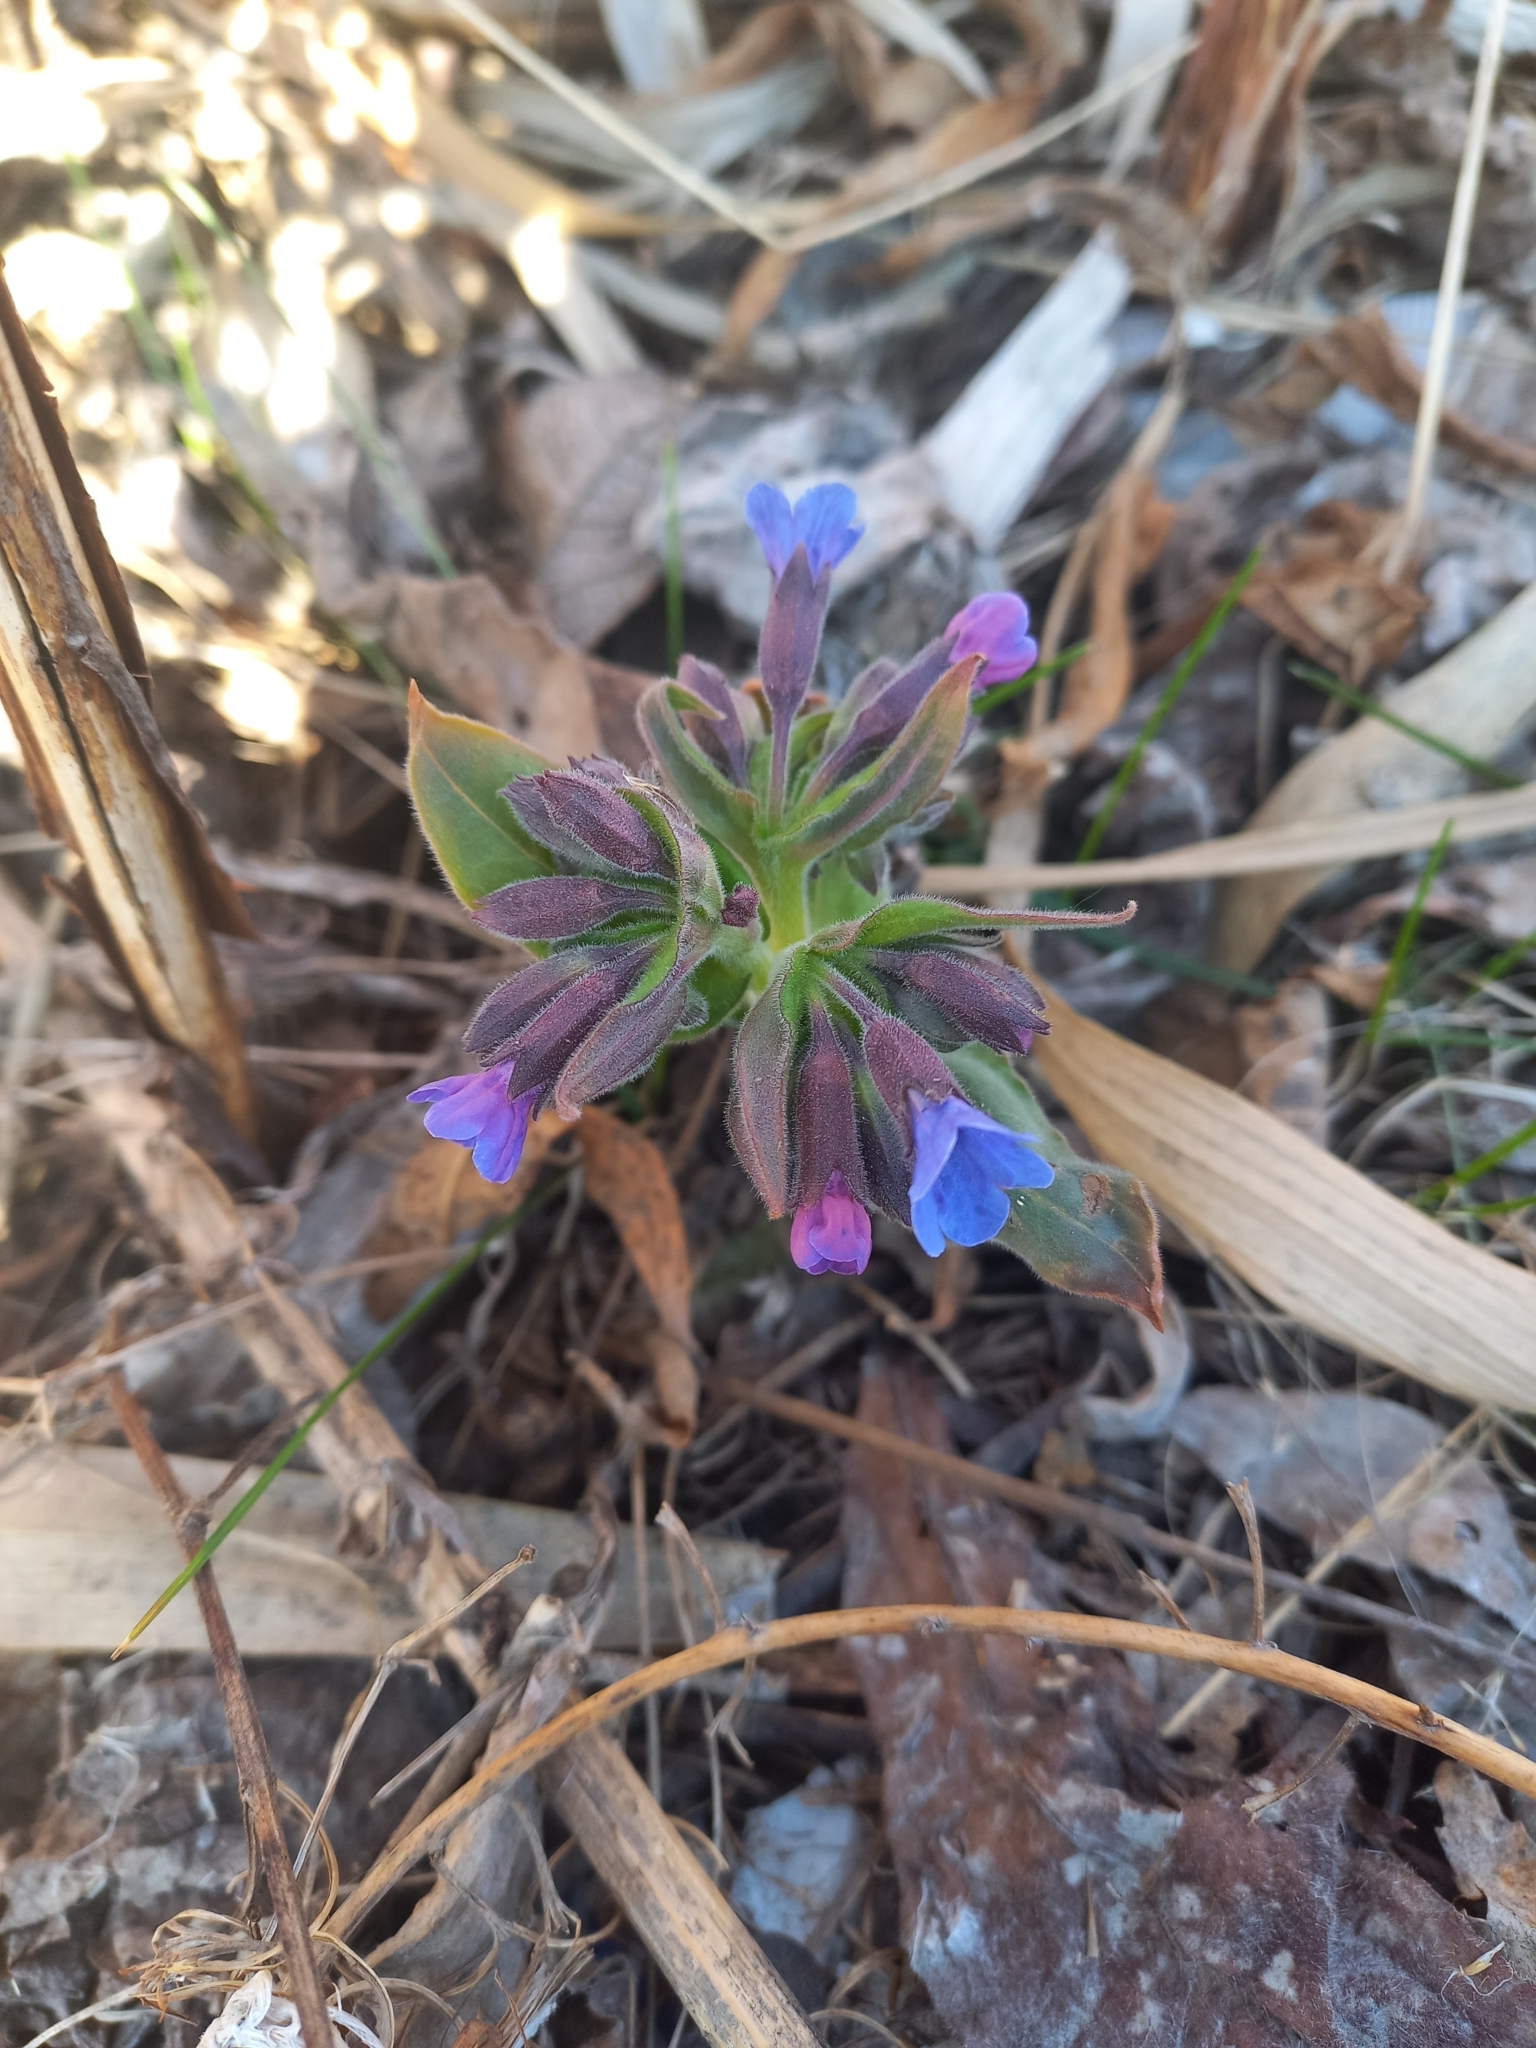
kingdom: Plantae
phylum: Tracheophyta
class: Magnoliopsida
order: Boraginales
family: Boraginaceae
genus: Pulmonaria
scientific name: Pulmonaria mollis
